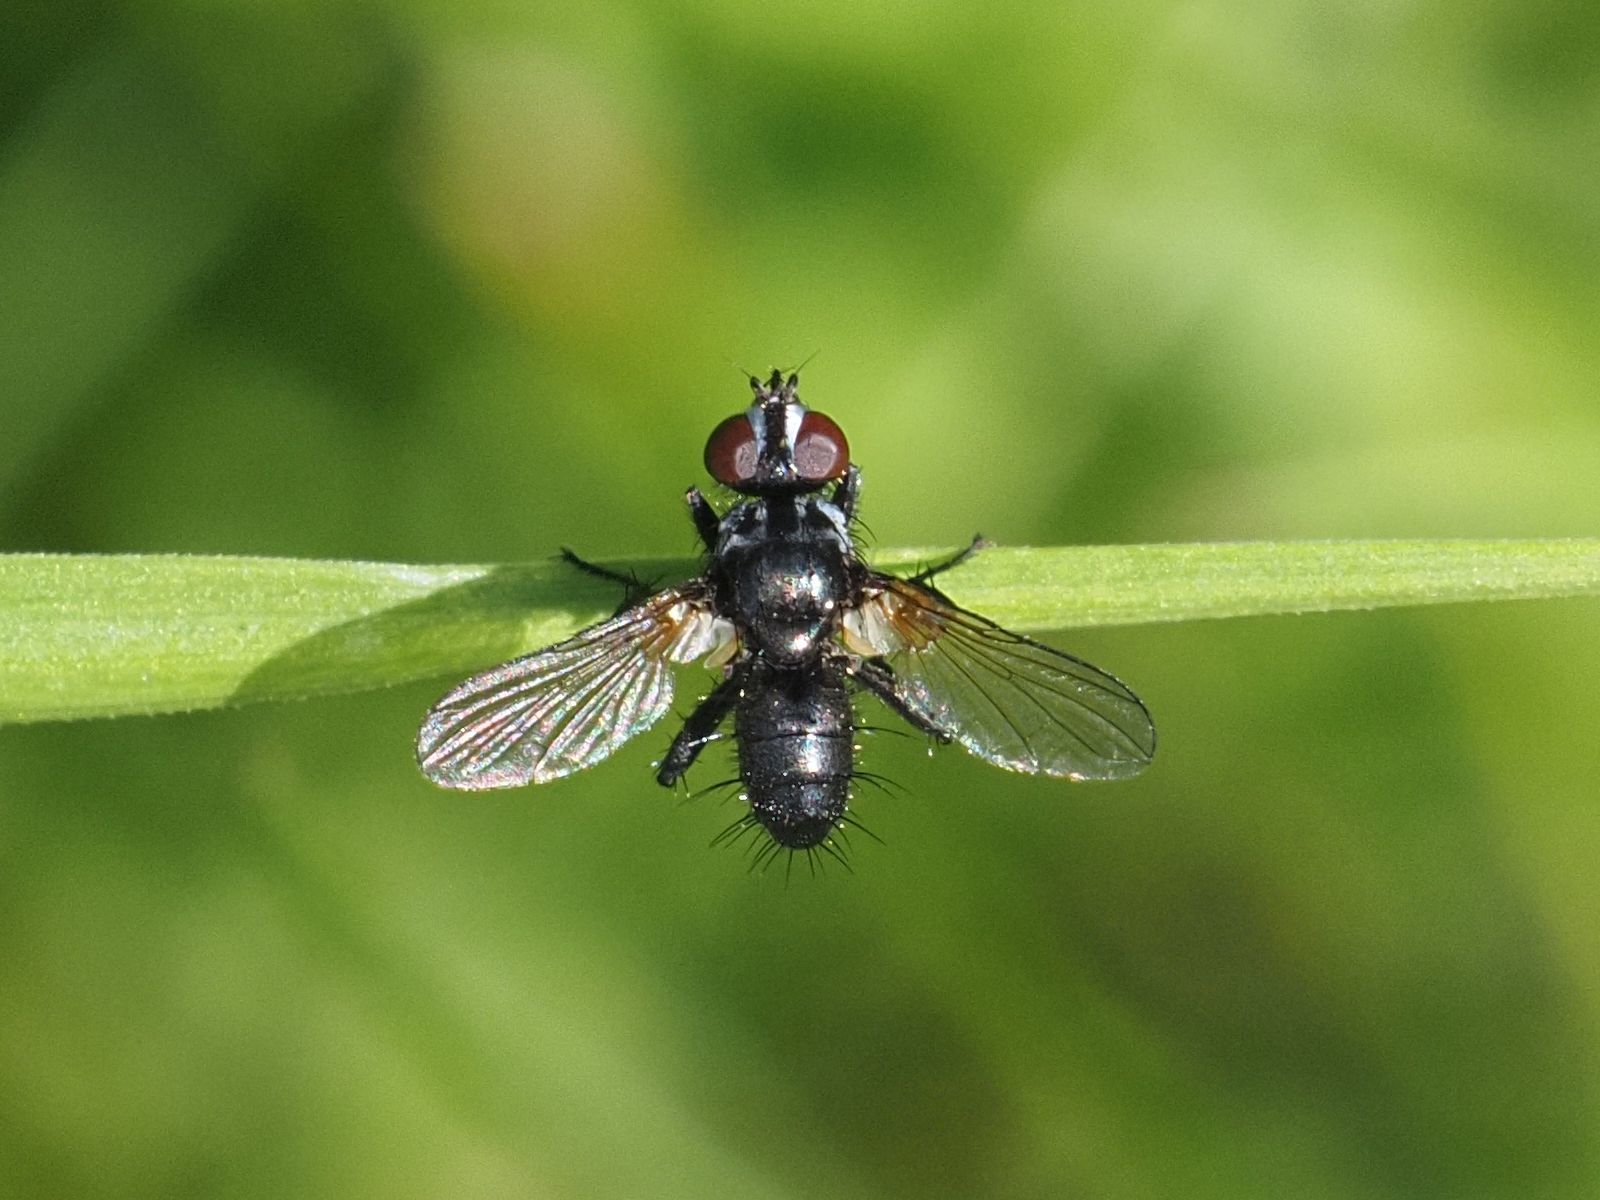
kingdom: Animalia
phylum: Arthropoda
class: Insecta
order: Diptera
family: Tachinidae
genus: Phania
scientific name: Phania funesta
